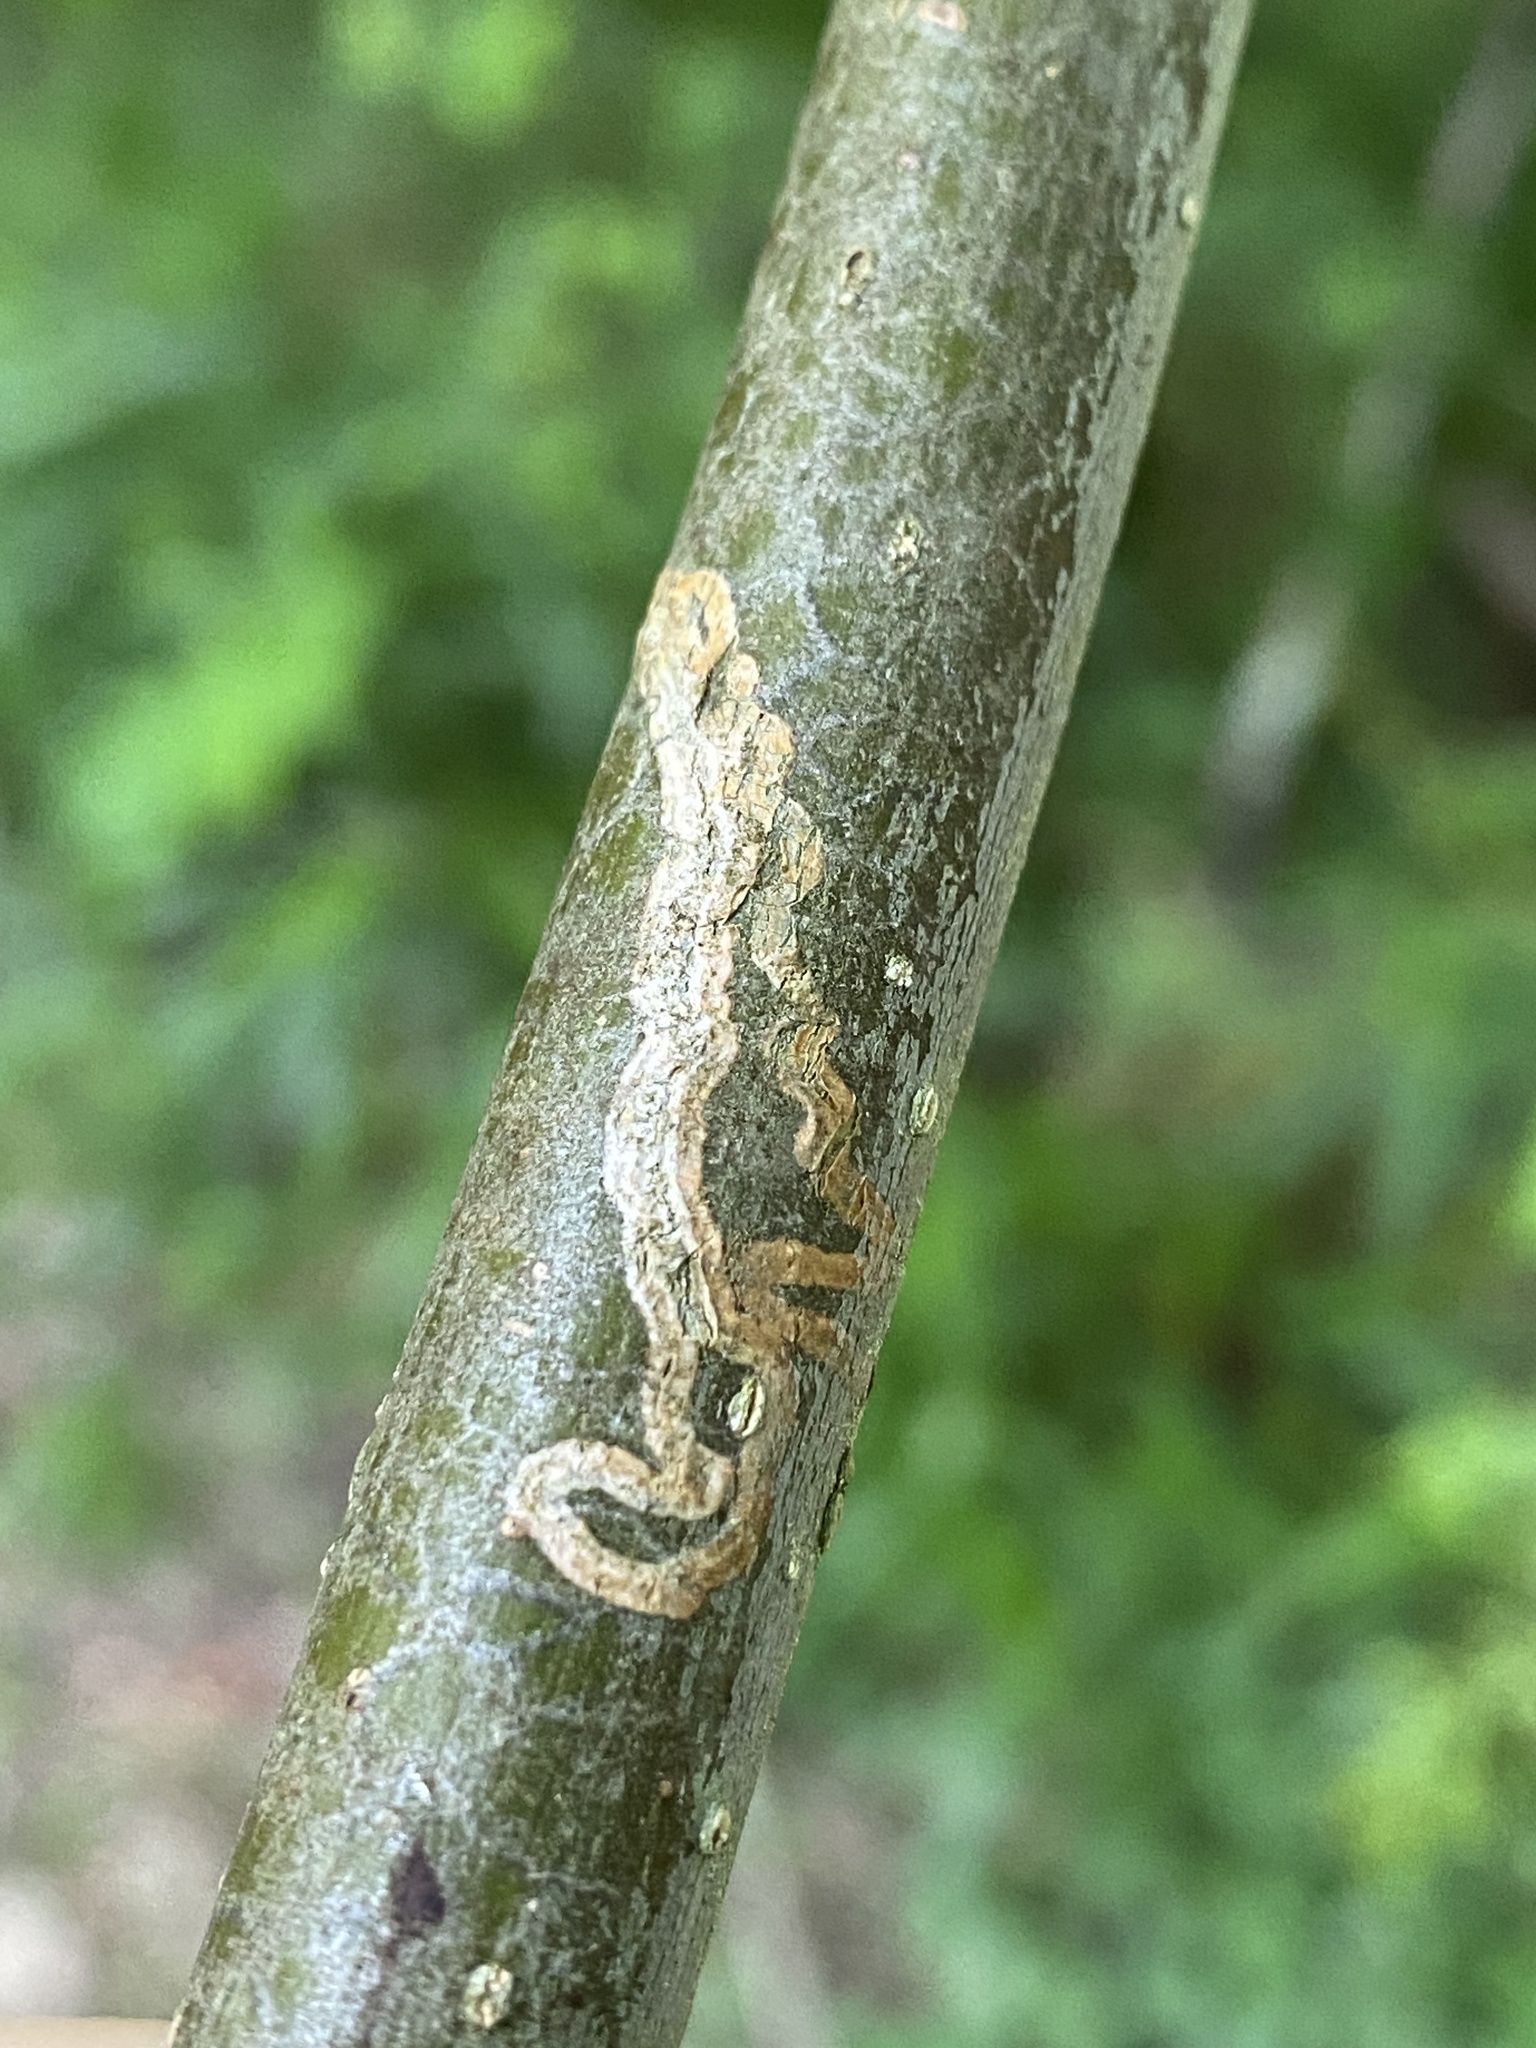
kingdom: Animalia
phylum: Arthropoda
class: Insecta
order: Lepidoptera
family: Gracillariidae
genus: Marmara
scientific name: Marmara fraxinicola
